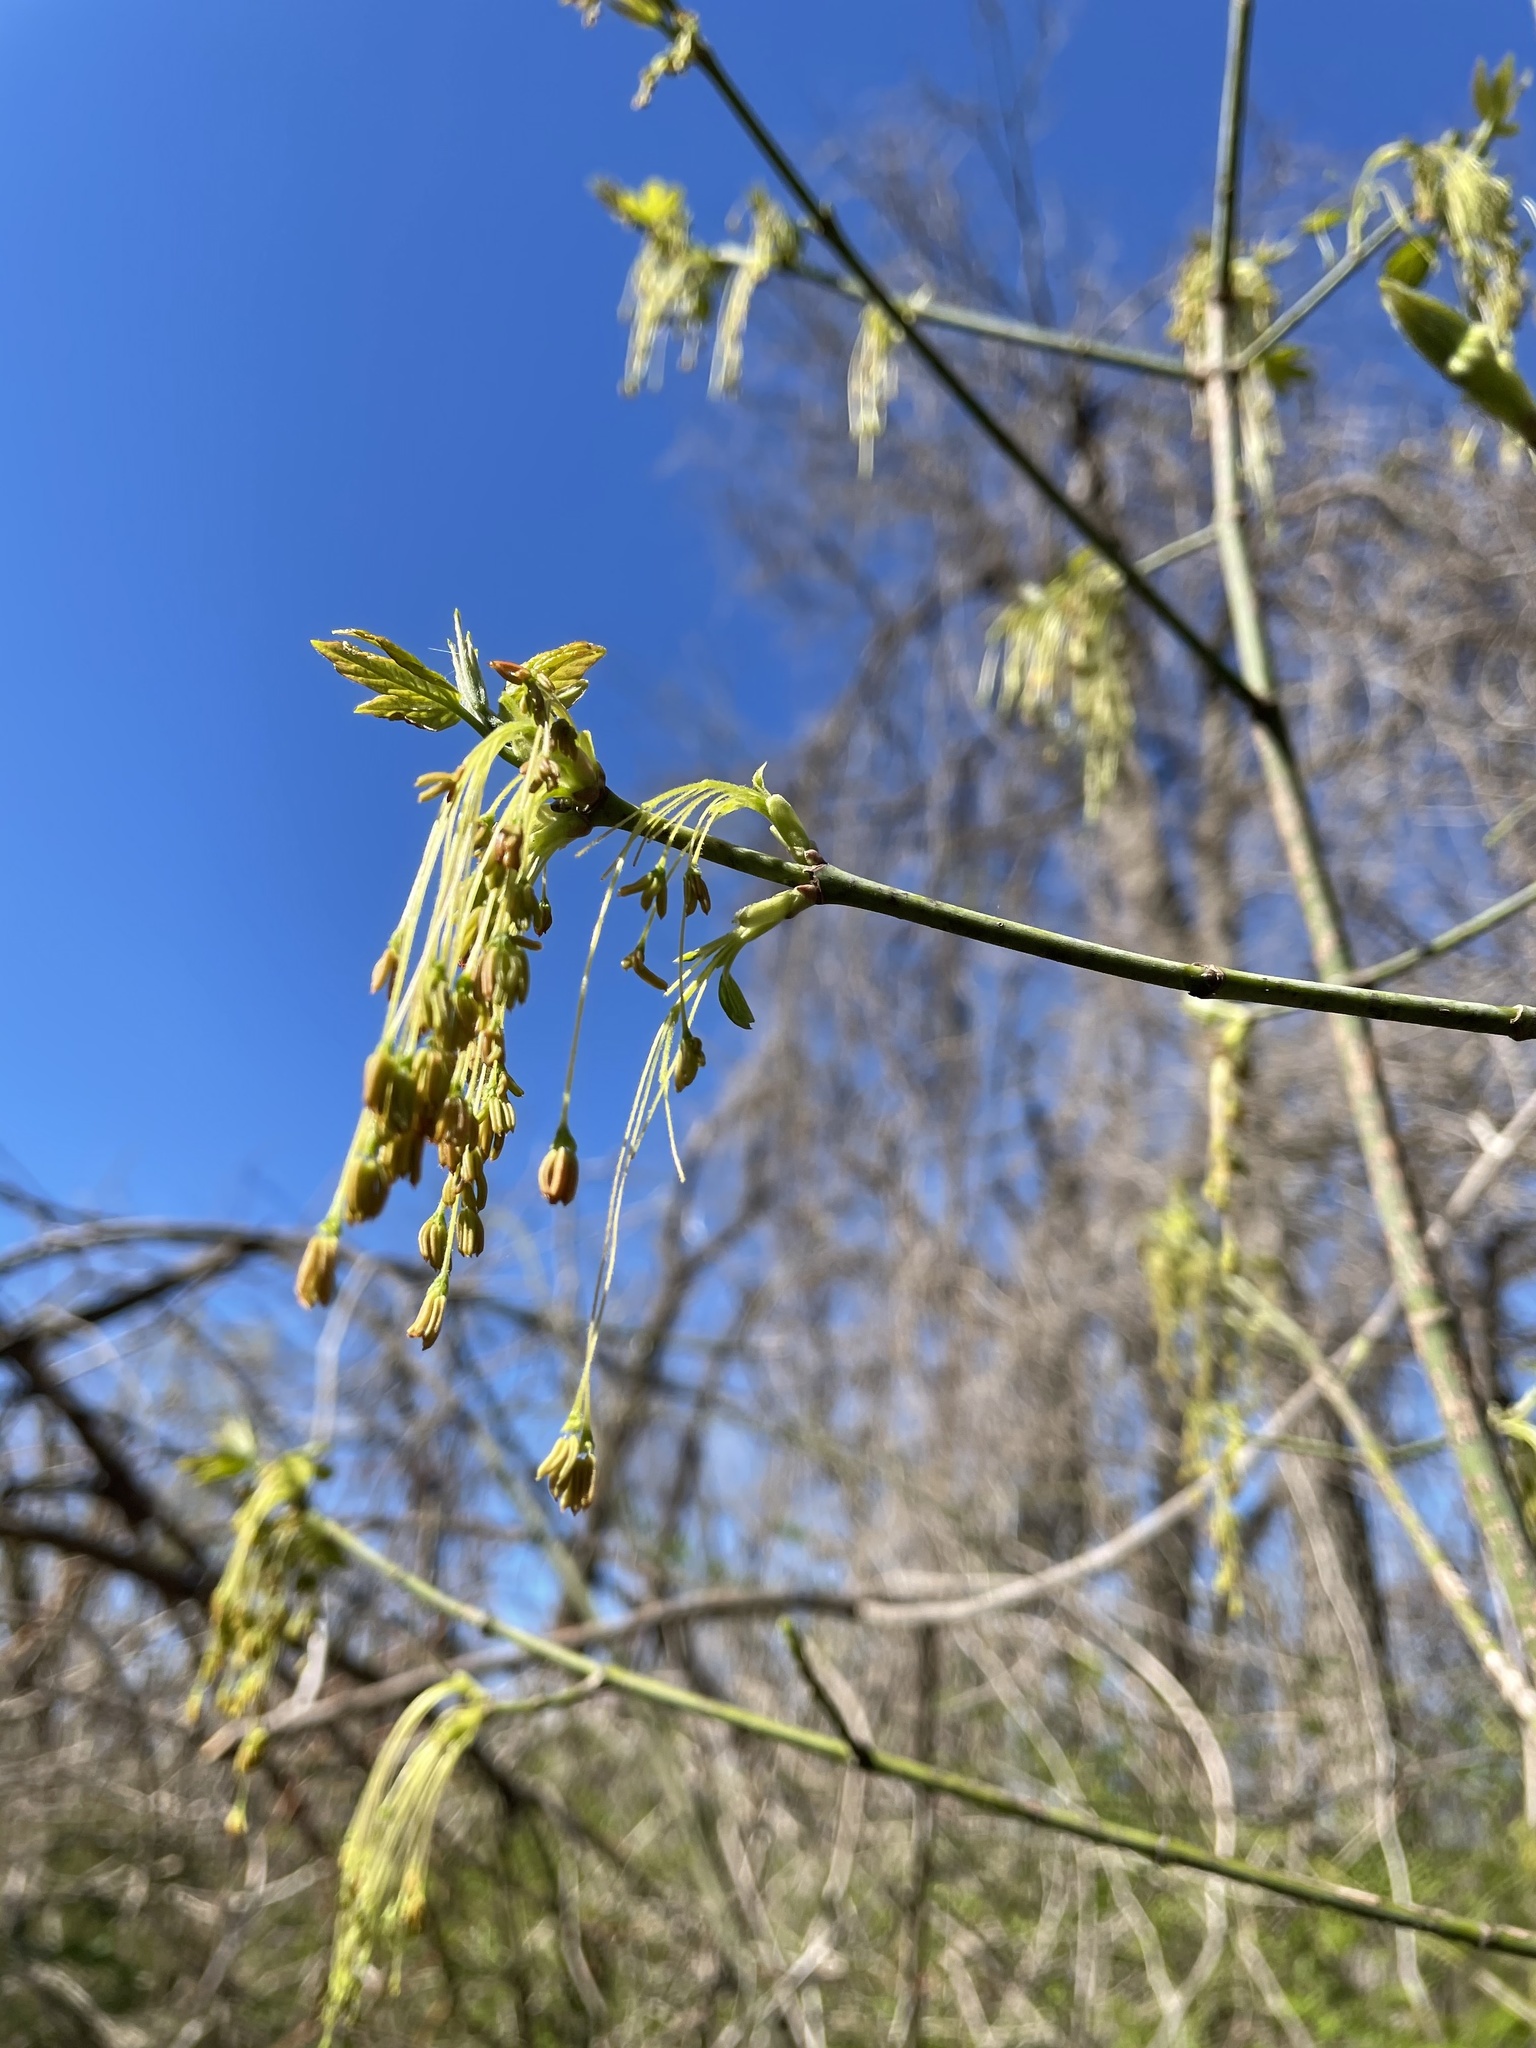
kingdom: Plantae
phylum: Tracheophyta
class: Magnoliopsida
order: Sapindales
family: Sapindaceae
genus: Acer
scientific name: Acer negundo
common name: Ashleaf maple
